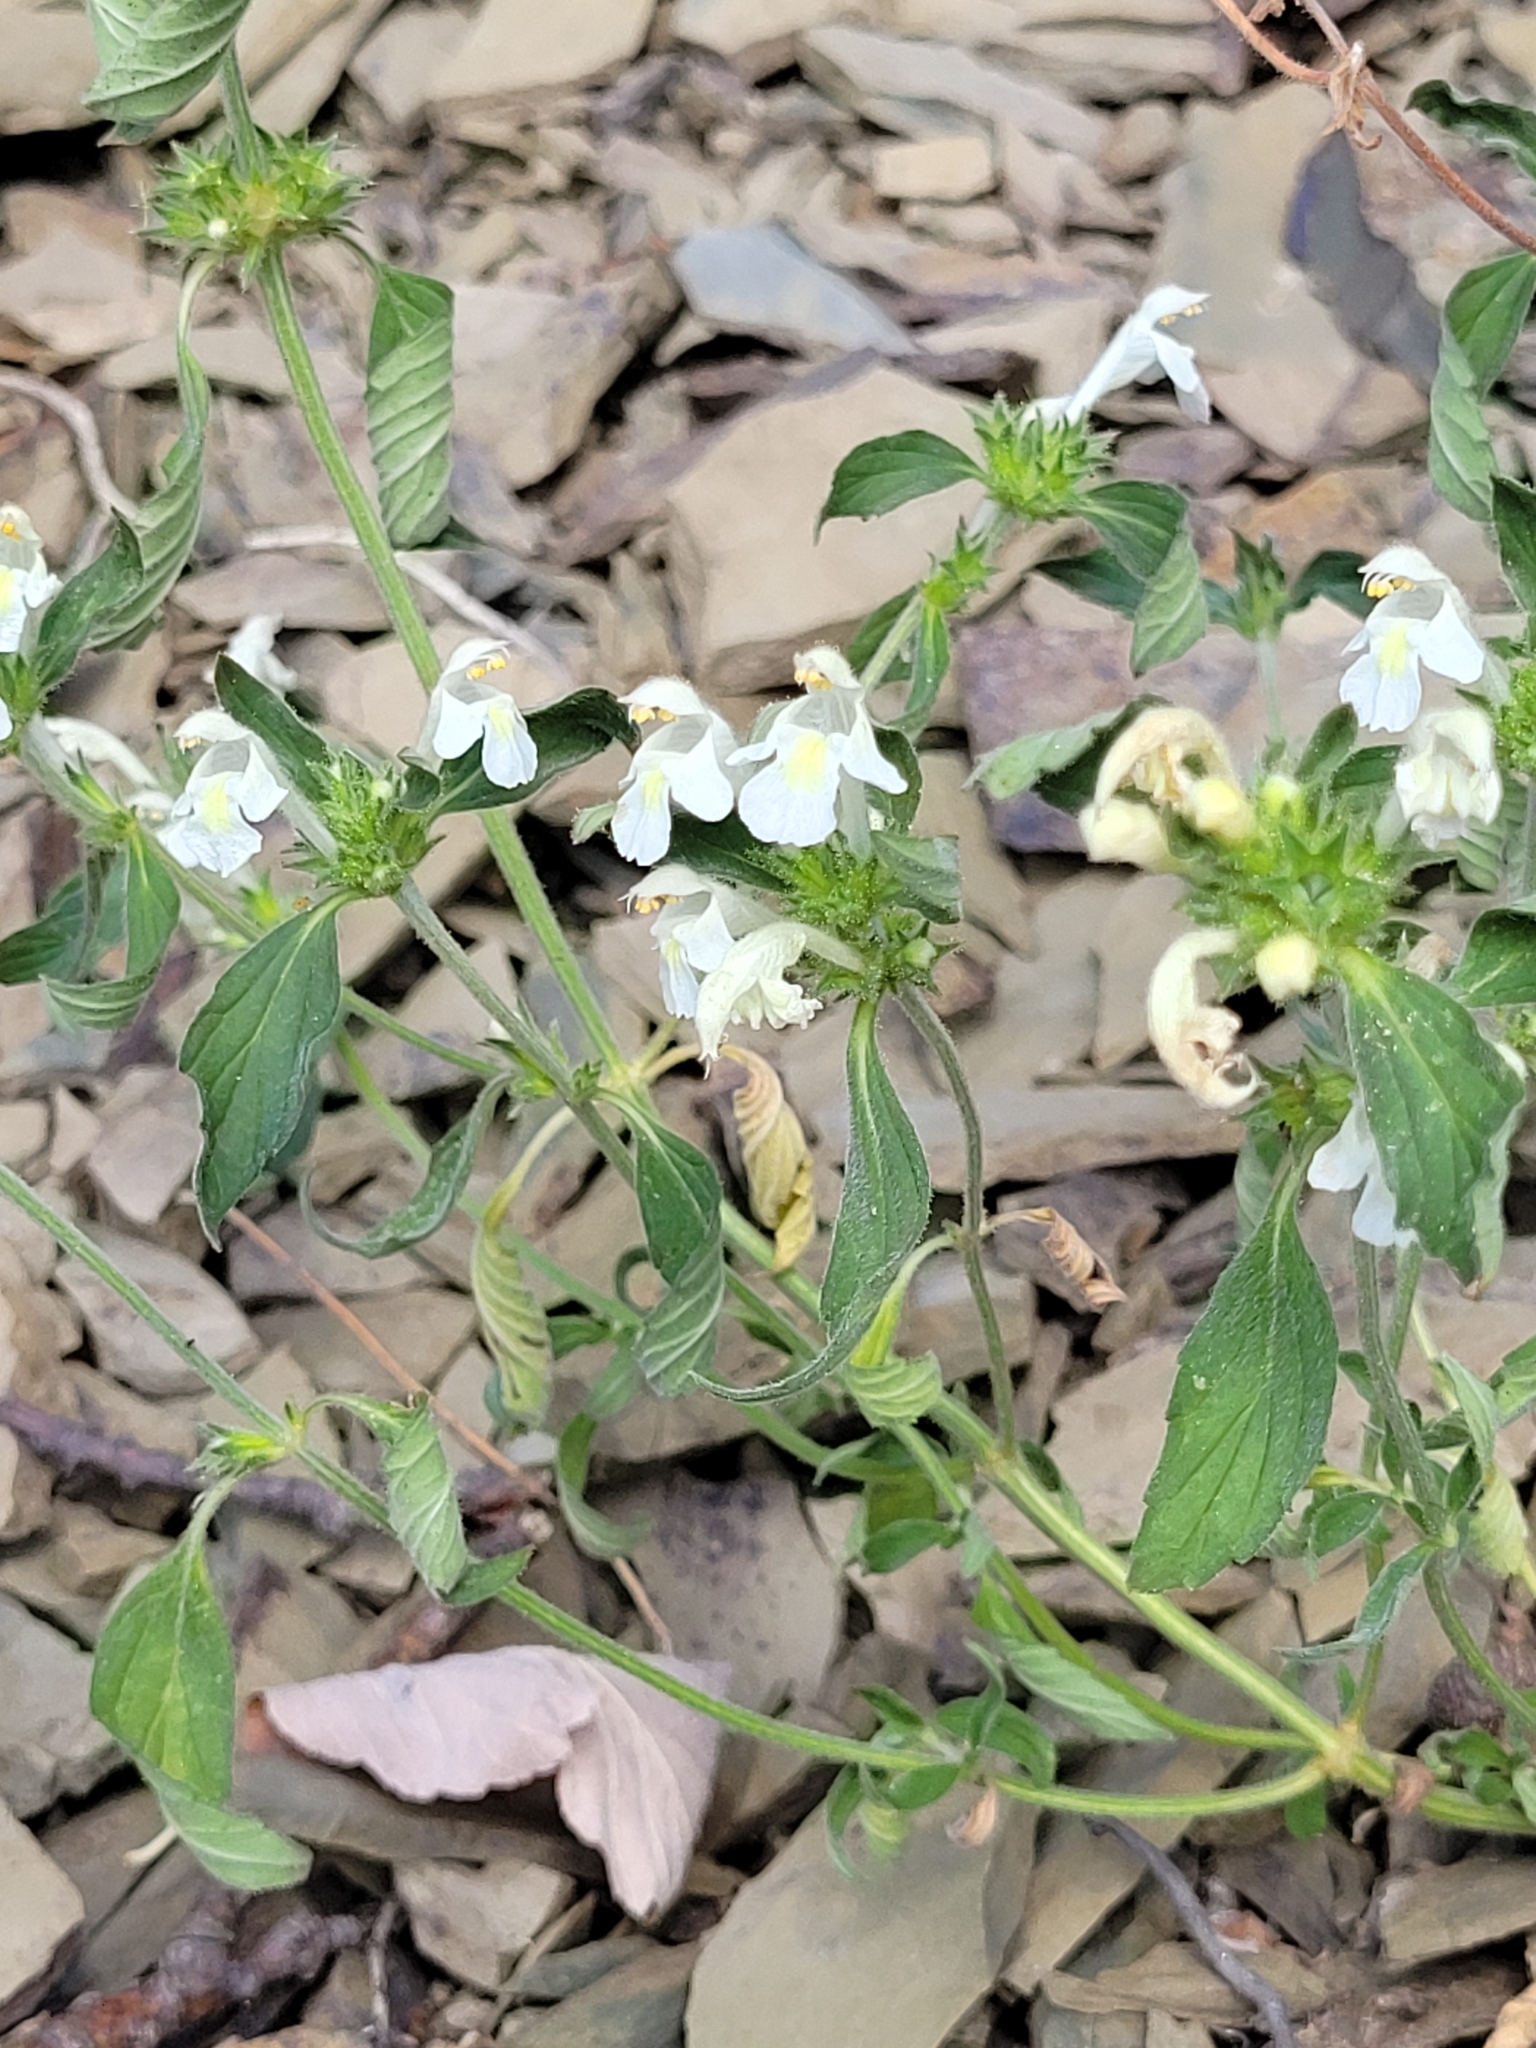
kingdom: Plantae
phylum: Tracheophyta
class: Magnoliopsida
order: Lamiales
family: Lamiaceae
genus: Galeopsis
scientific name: Galeopsis segetum
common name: Downy hemp-nettle
